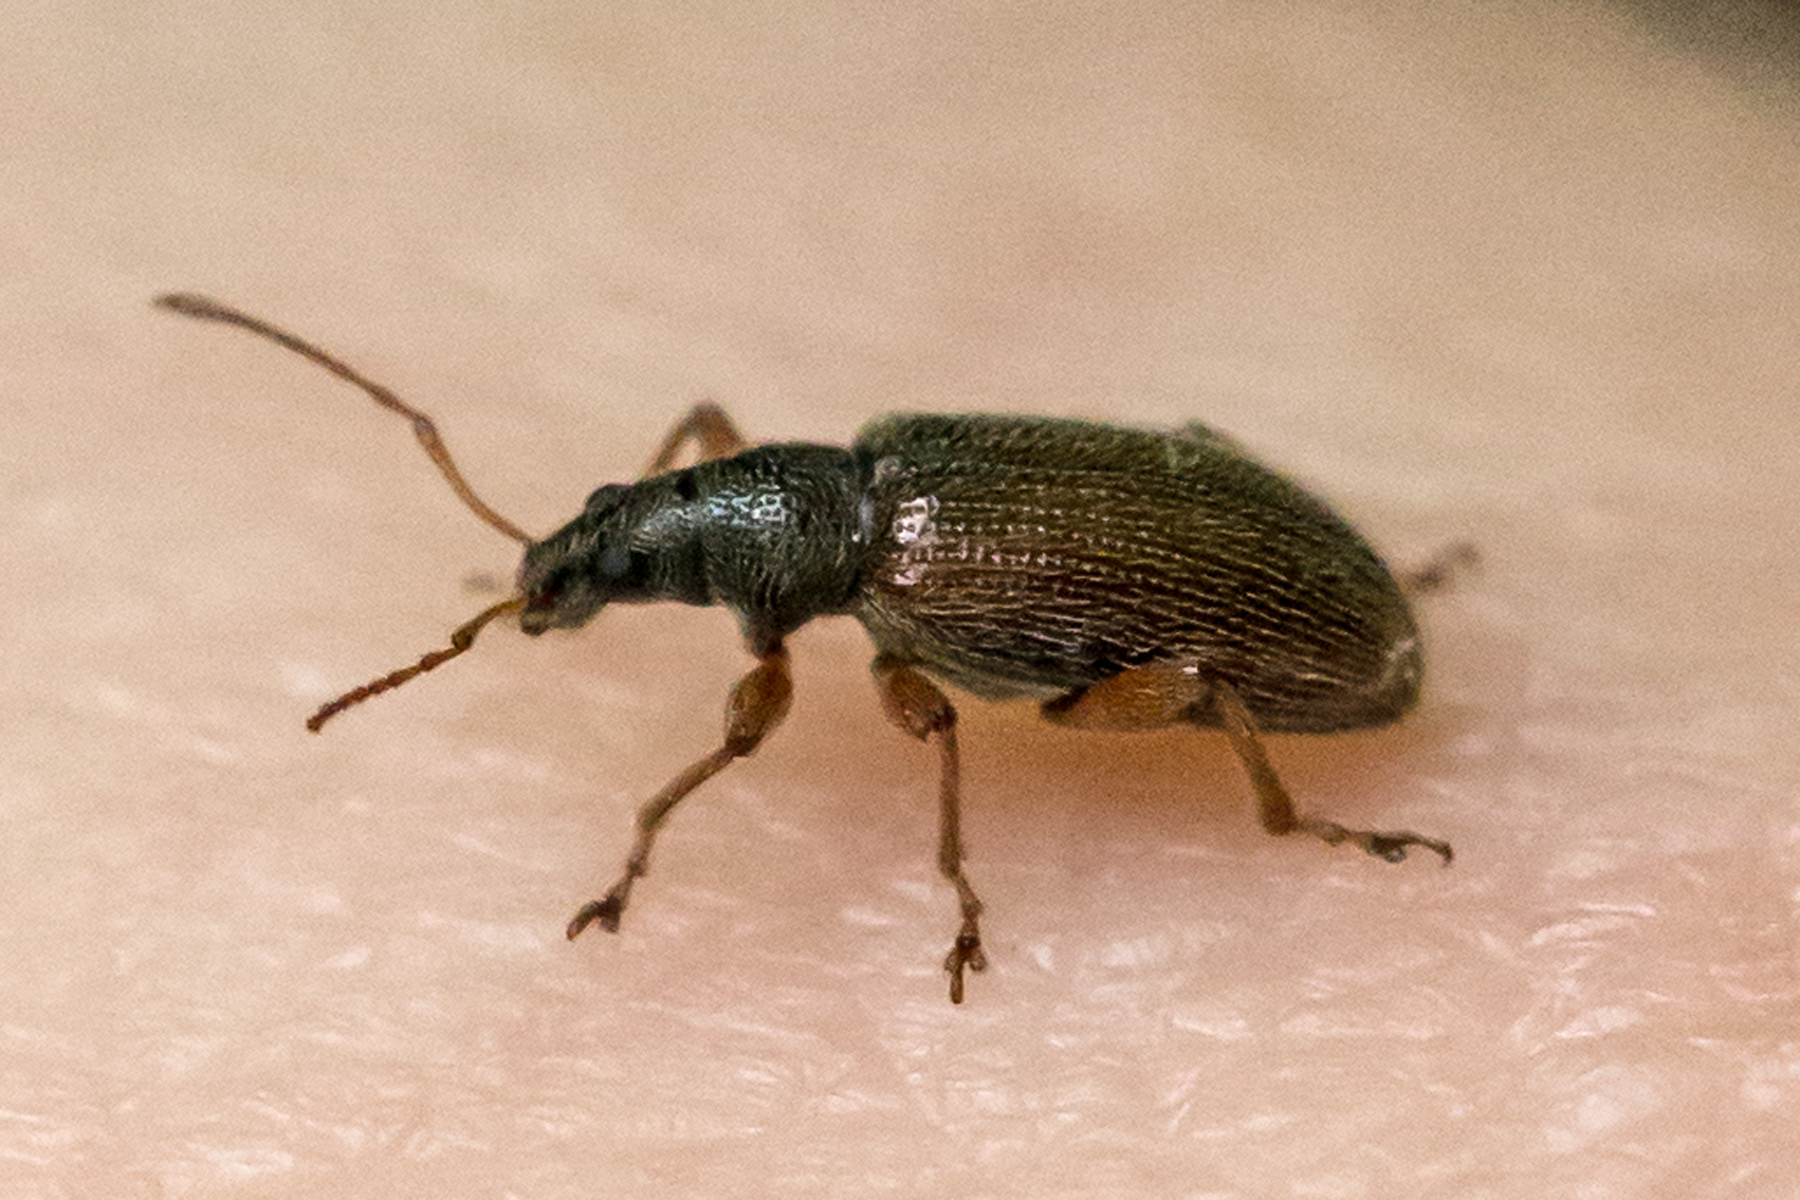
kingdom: Animalia
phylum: Arthropoda
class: Insecta
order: Coleoptera
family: Curculionidae
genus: Phyllobius
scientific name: Phyllobius oblongus
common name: Brown leaf weevil
